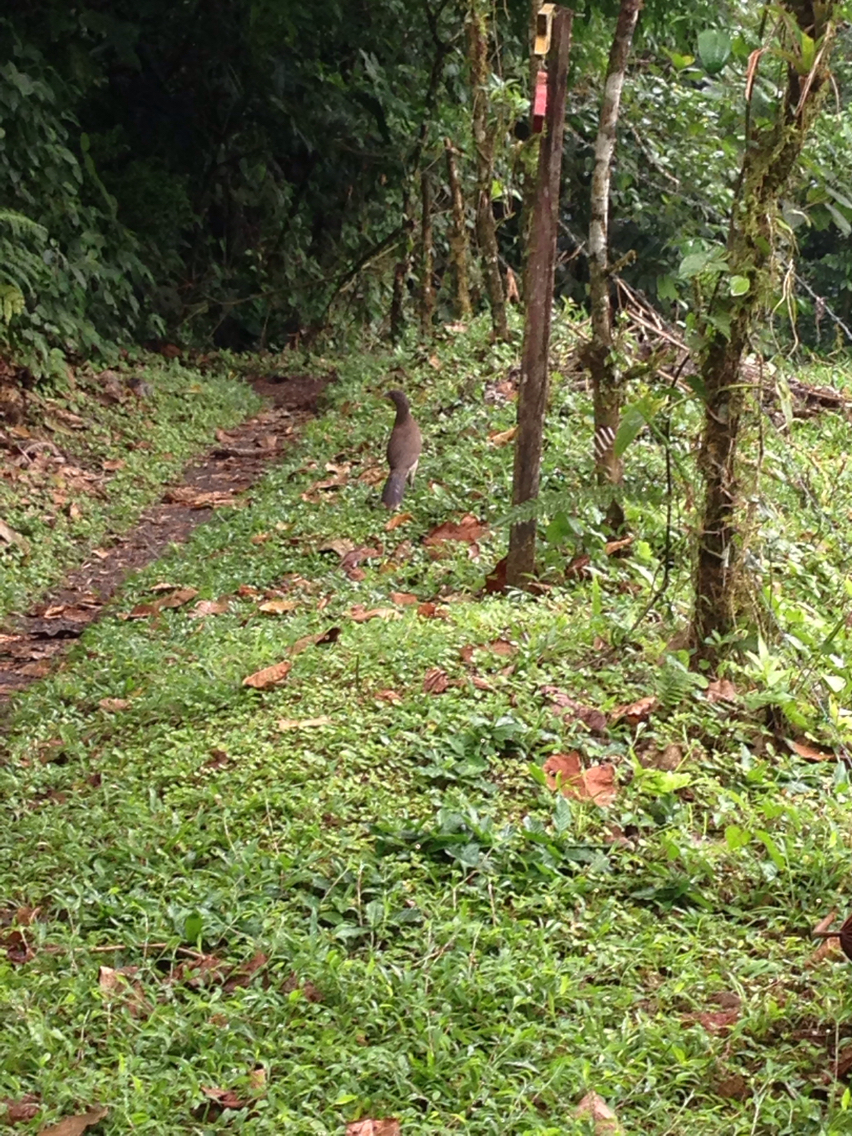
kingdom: Animalia
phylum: Chordata
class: Aves
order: Galliformes
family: Cracidae
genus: Ortalis
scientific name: Ortalis cinereiceps
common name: Grey-headed chachalaca
